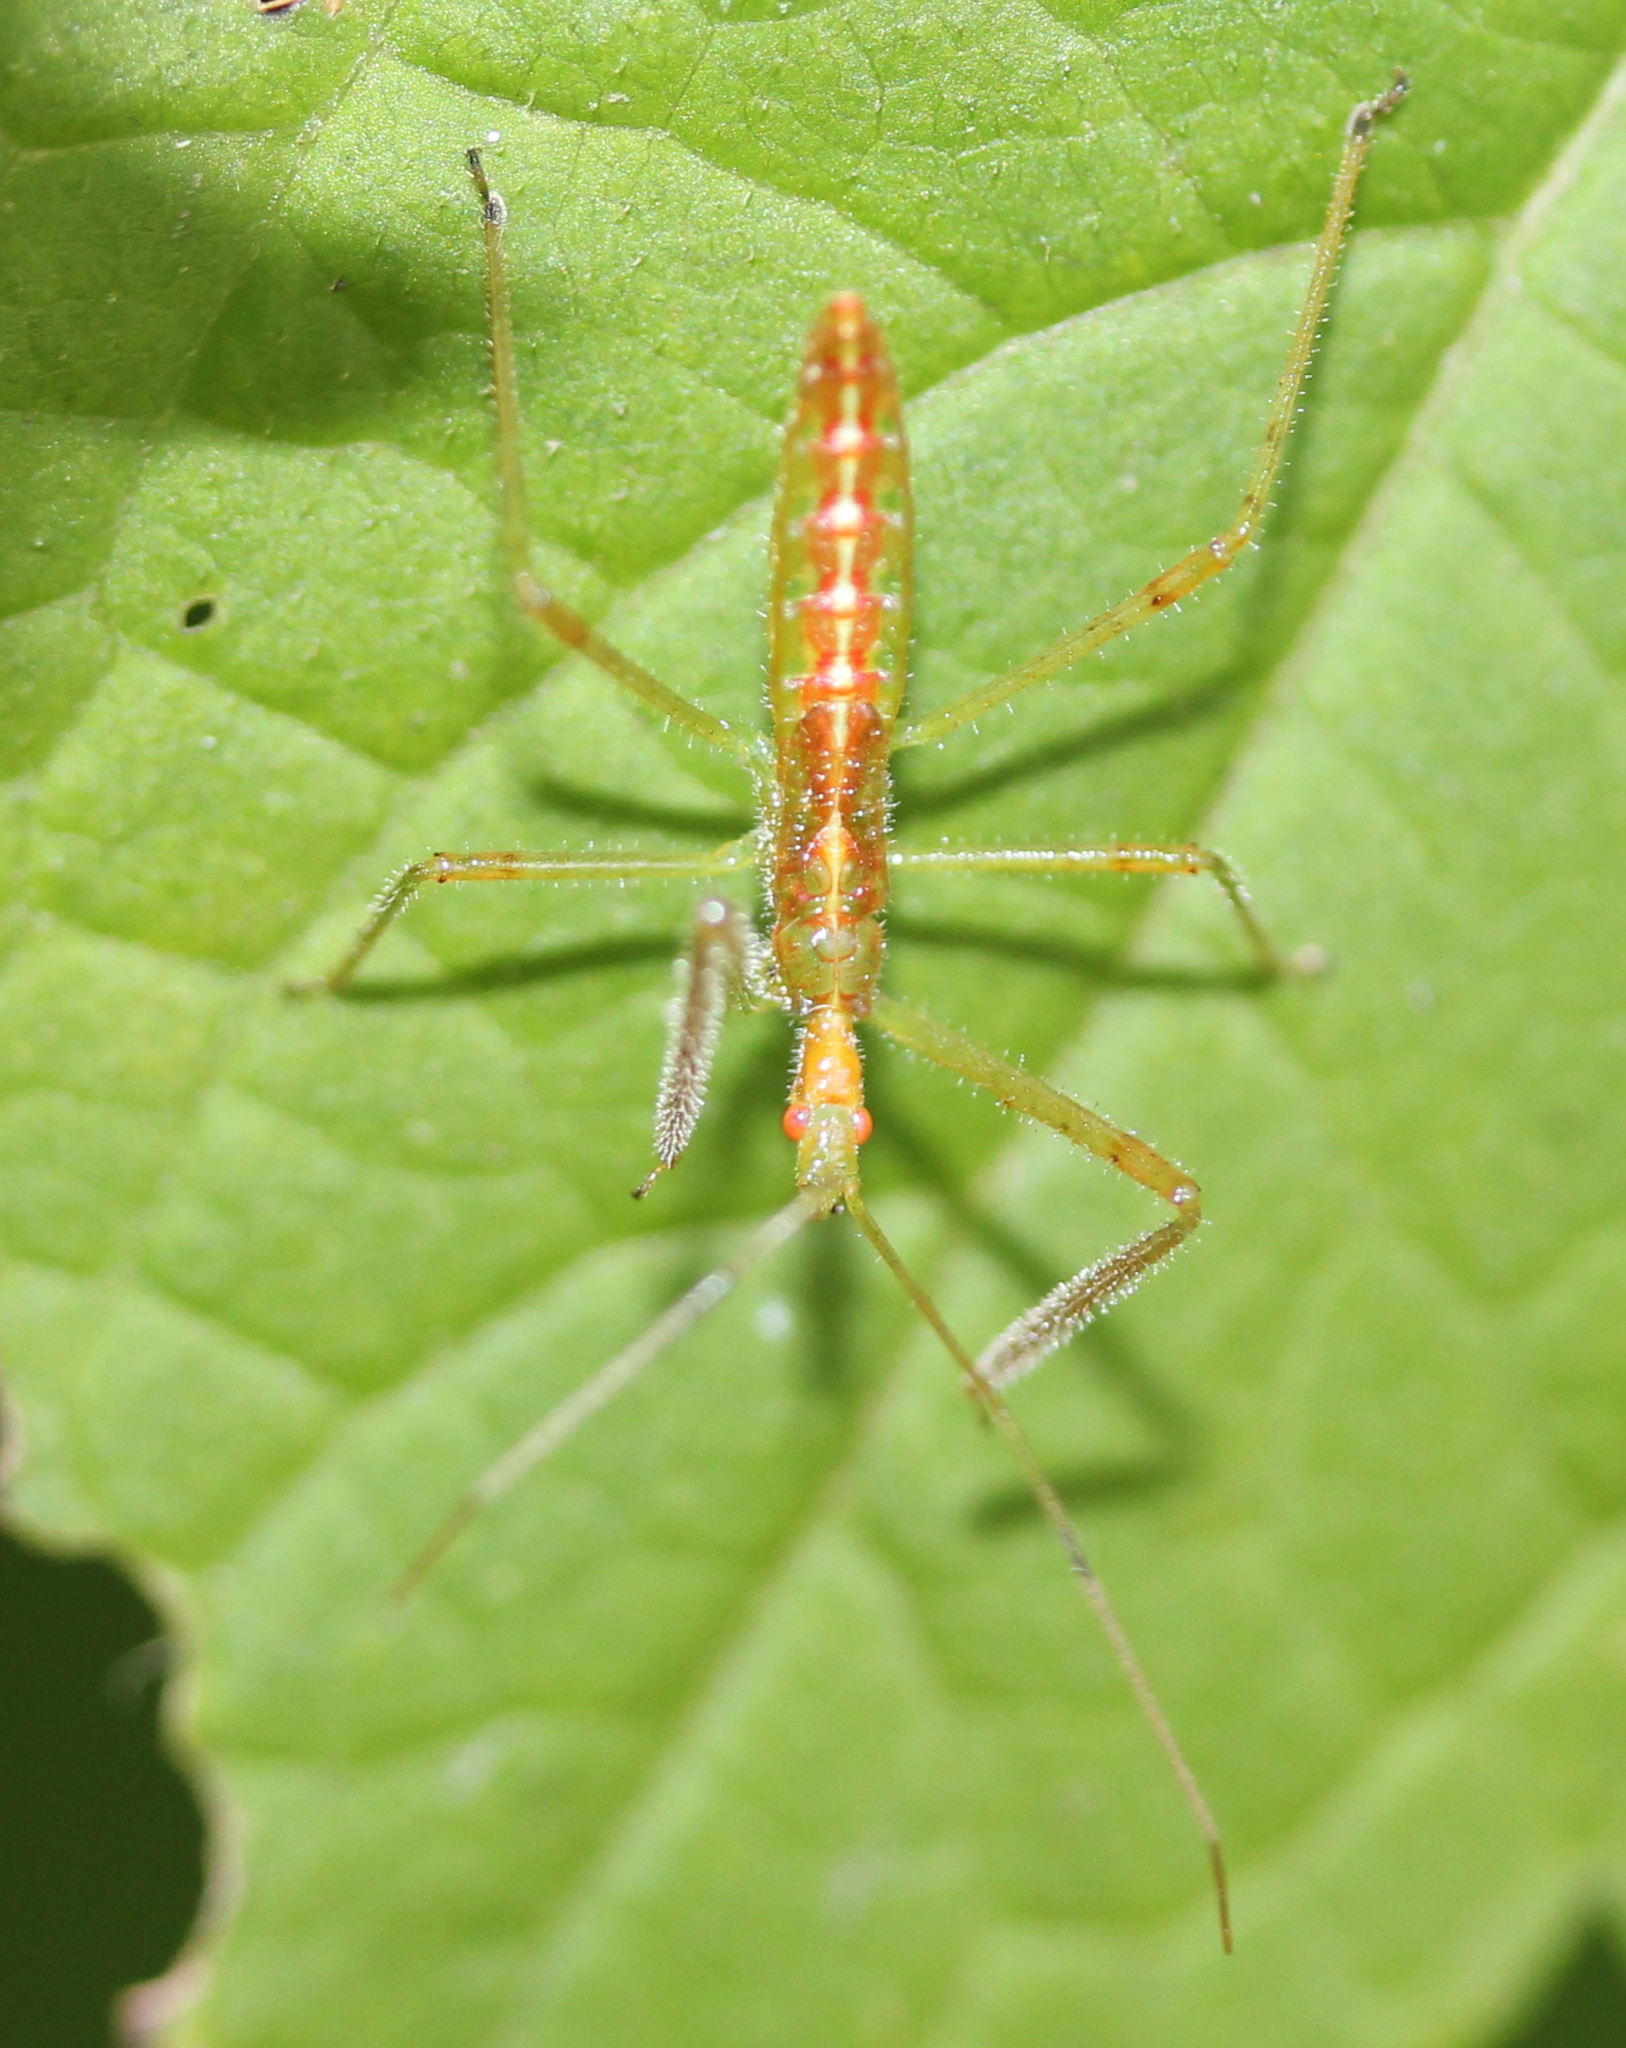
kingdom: Animalia
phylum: Arthropoda
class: Insecta
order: Hemiptera
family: Reduviidae
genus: Zelus
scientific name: Zelus luridus
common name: Pale green assassin bug
